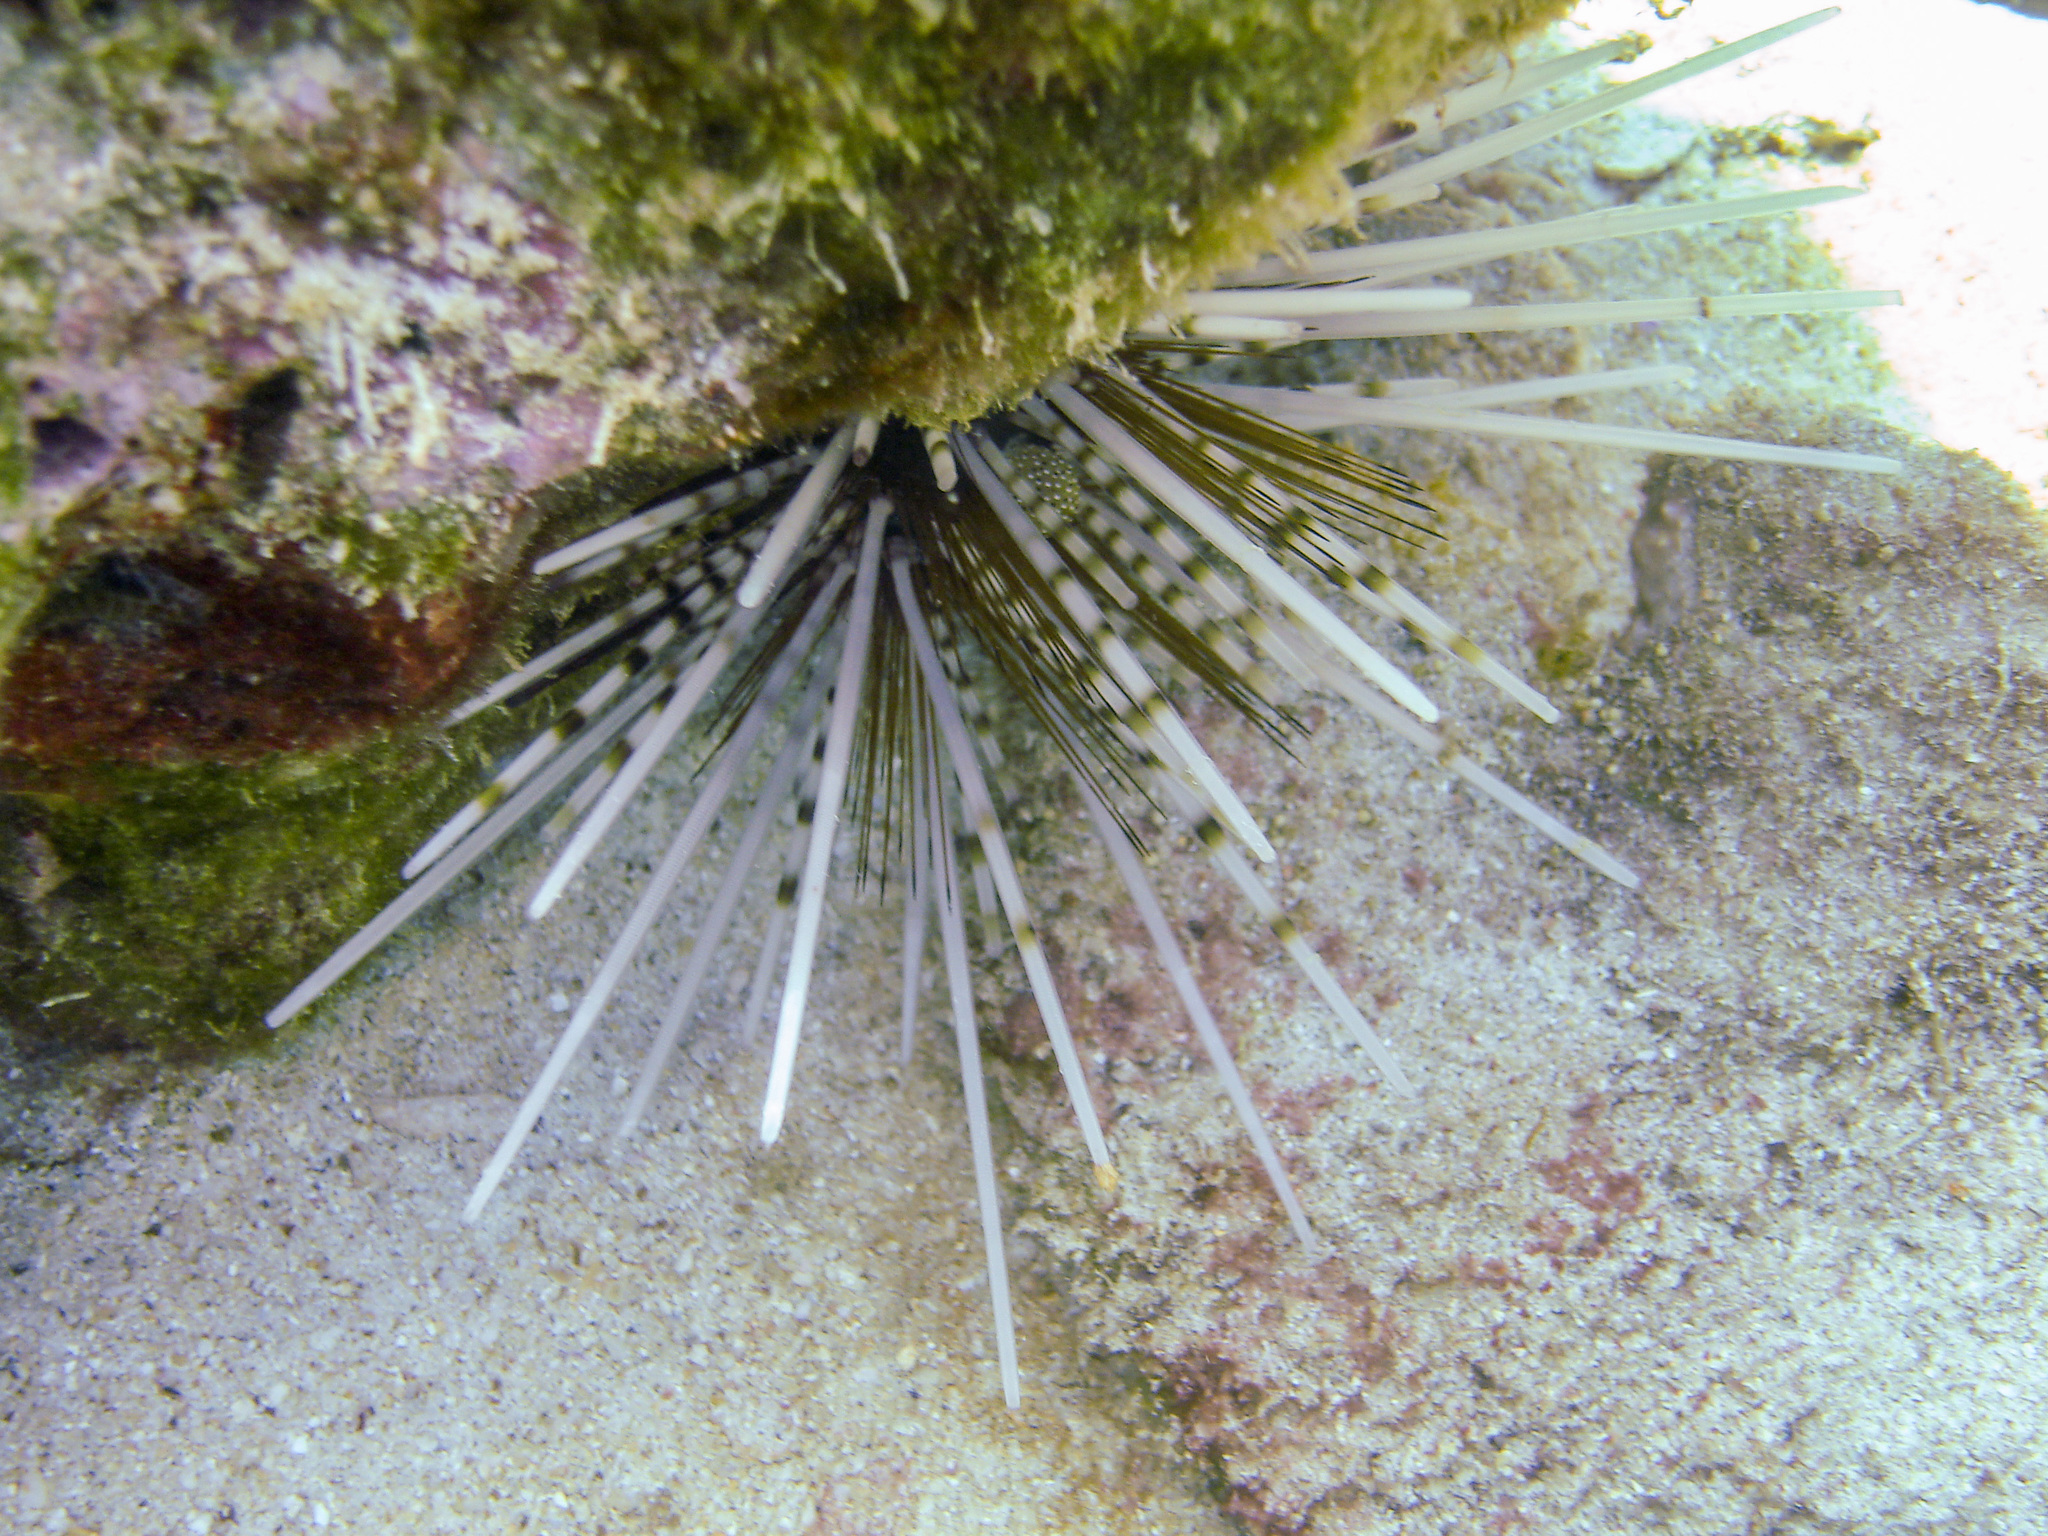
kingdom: Animalia
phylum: Echinodermata
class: Echinoidea
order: Diadematoida
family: Diadematidae
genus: Echinothrix
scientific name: Echinothrix calamaris
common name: Banded sea urchin
